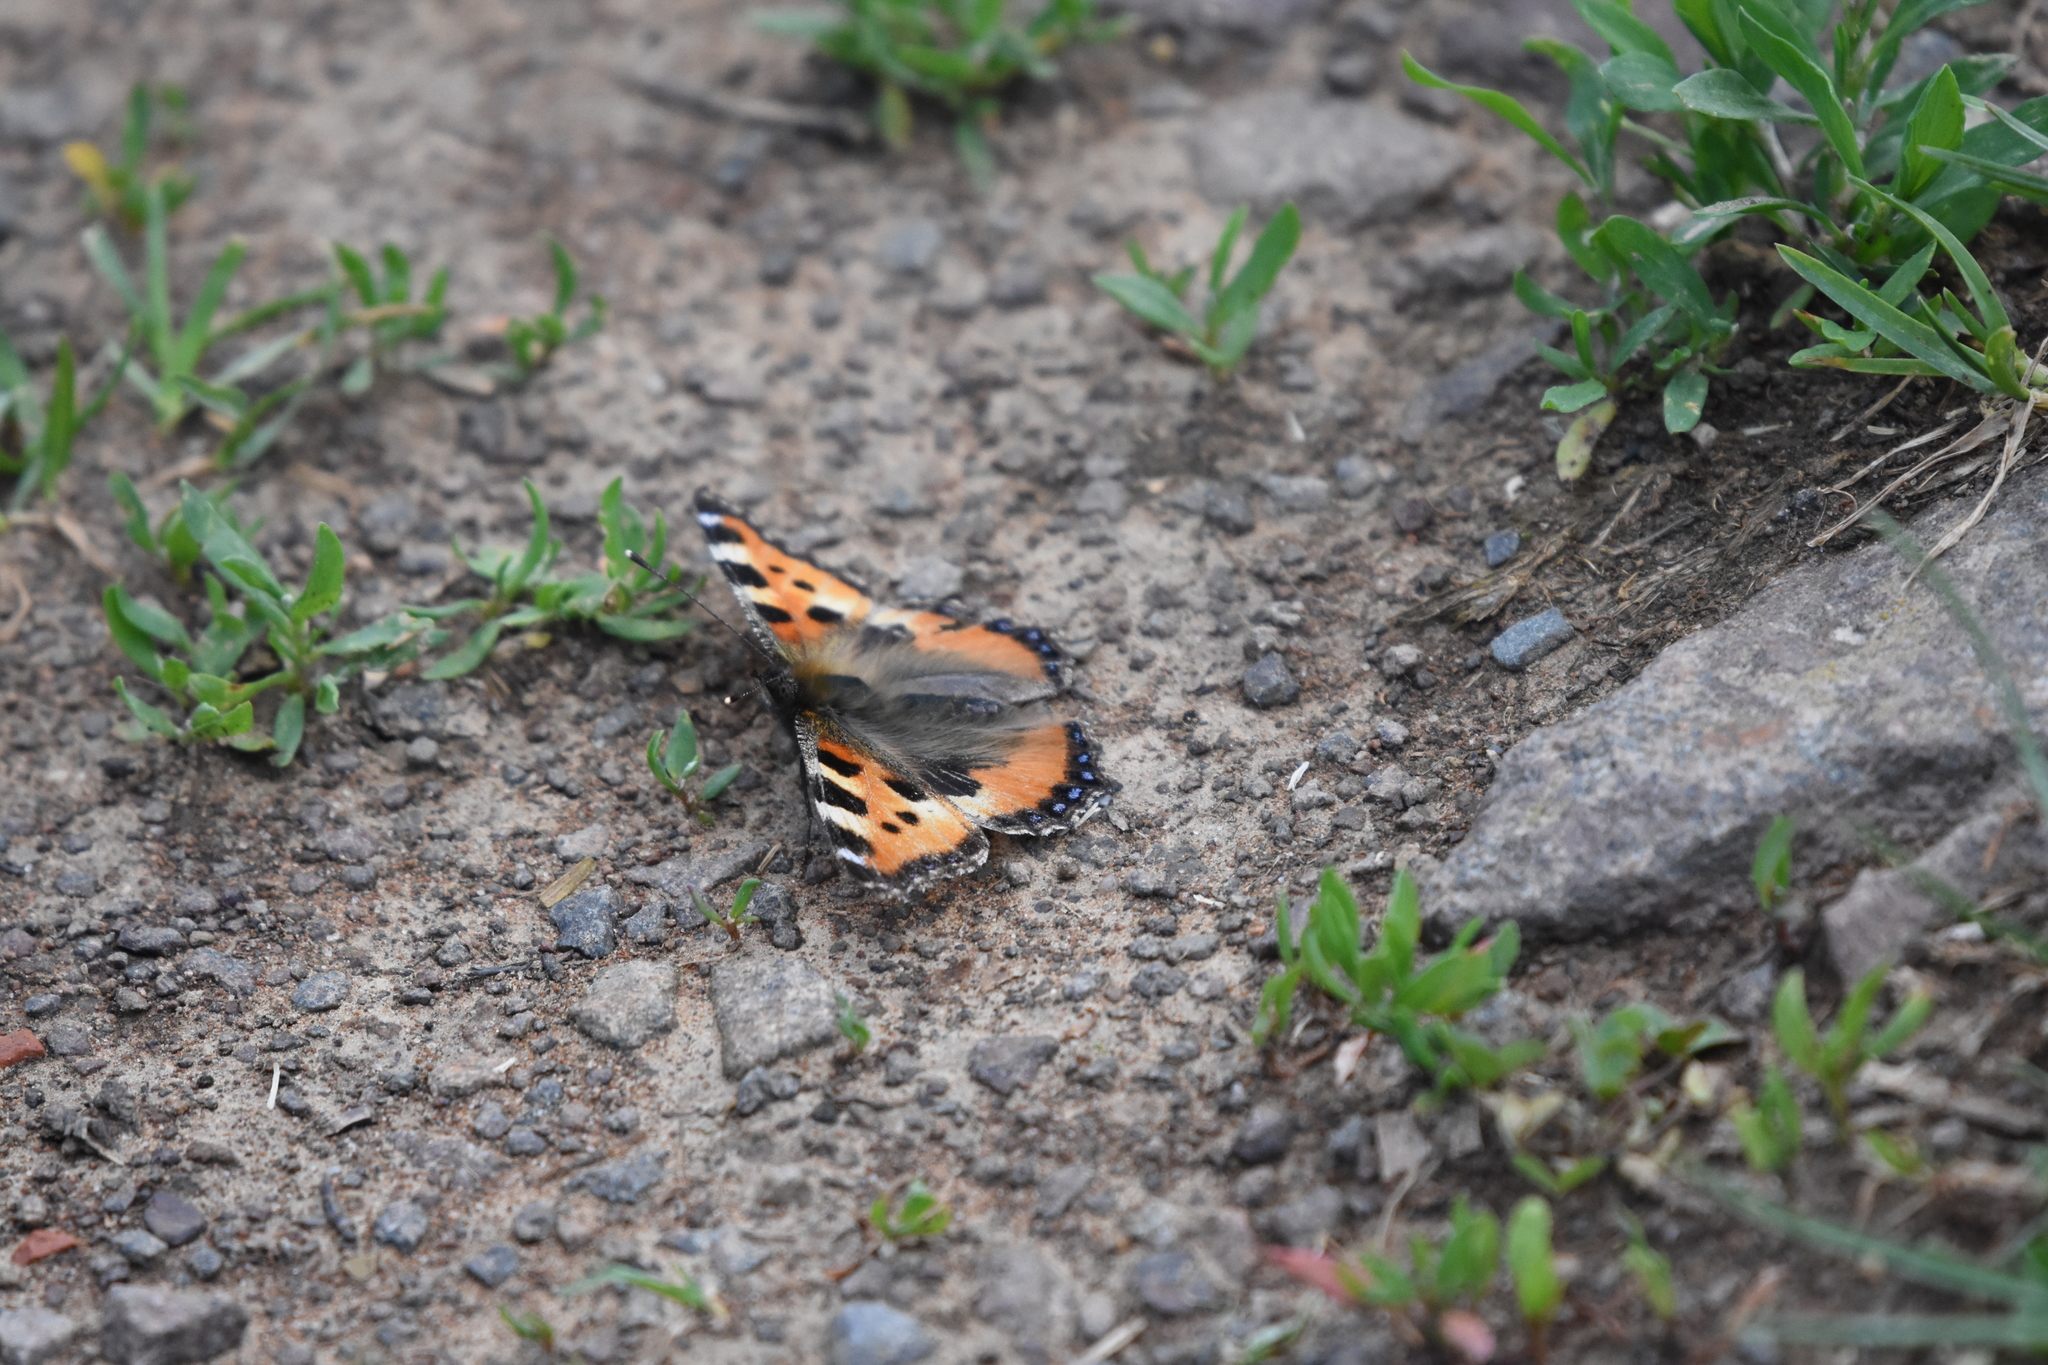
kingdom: Animalia
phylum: Arthropoda
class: Insecta
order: Lepidoptera
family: Nymphalidae
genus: Aglais
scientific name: Aglais urticae
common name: Small tortoiseshell
